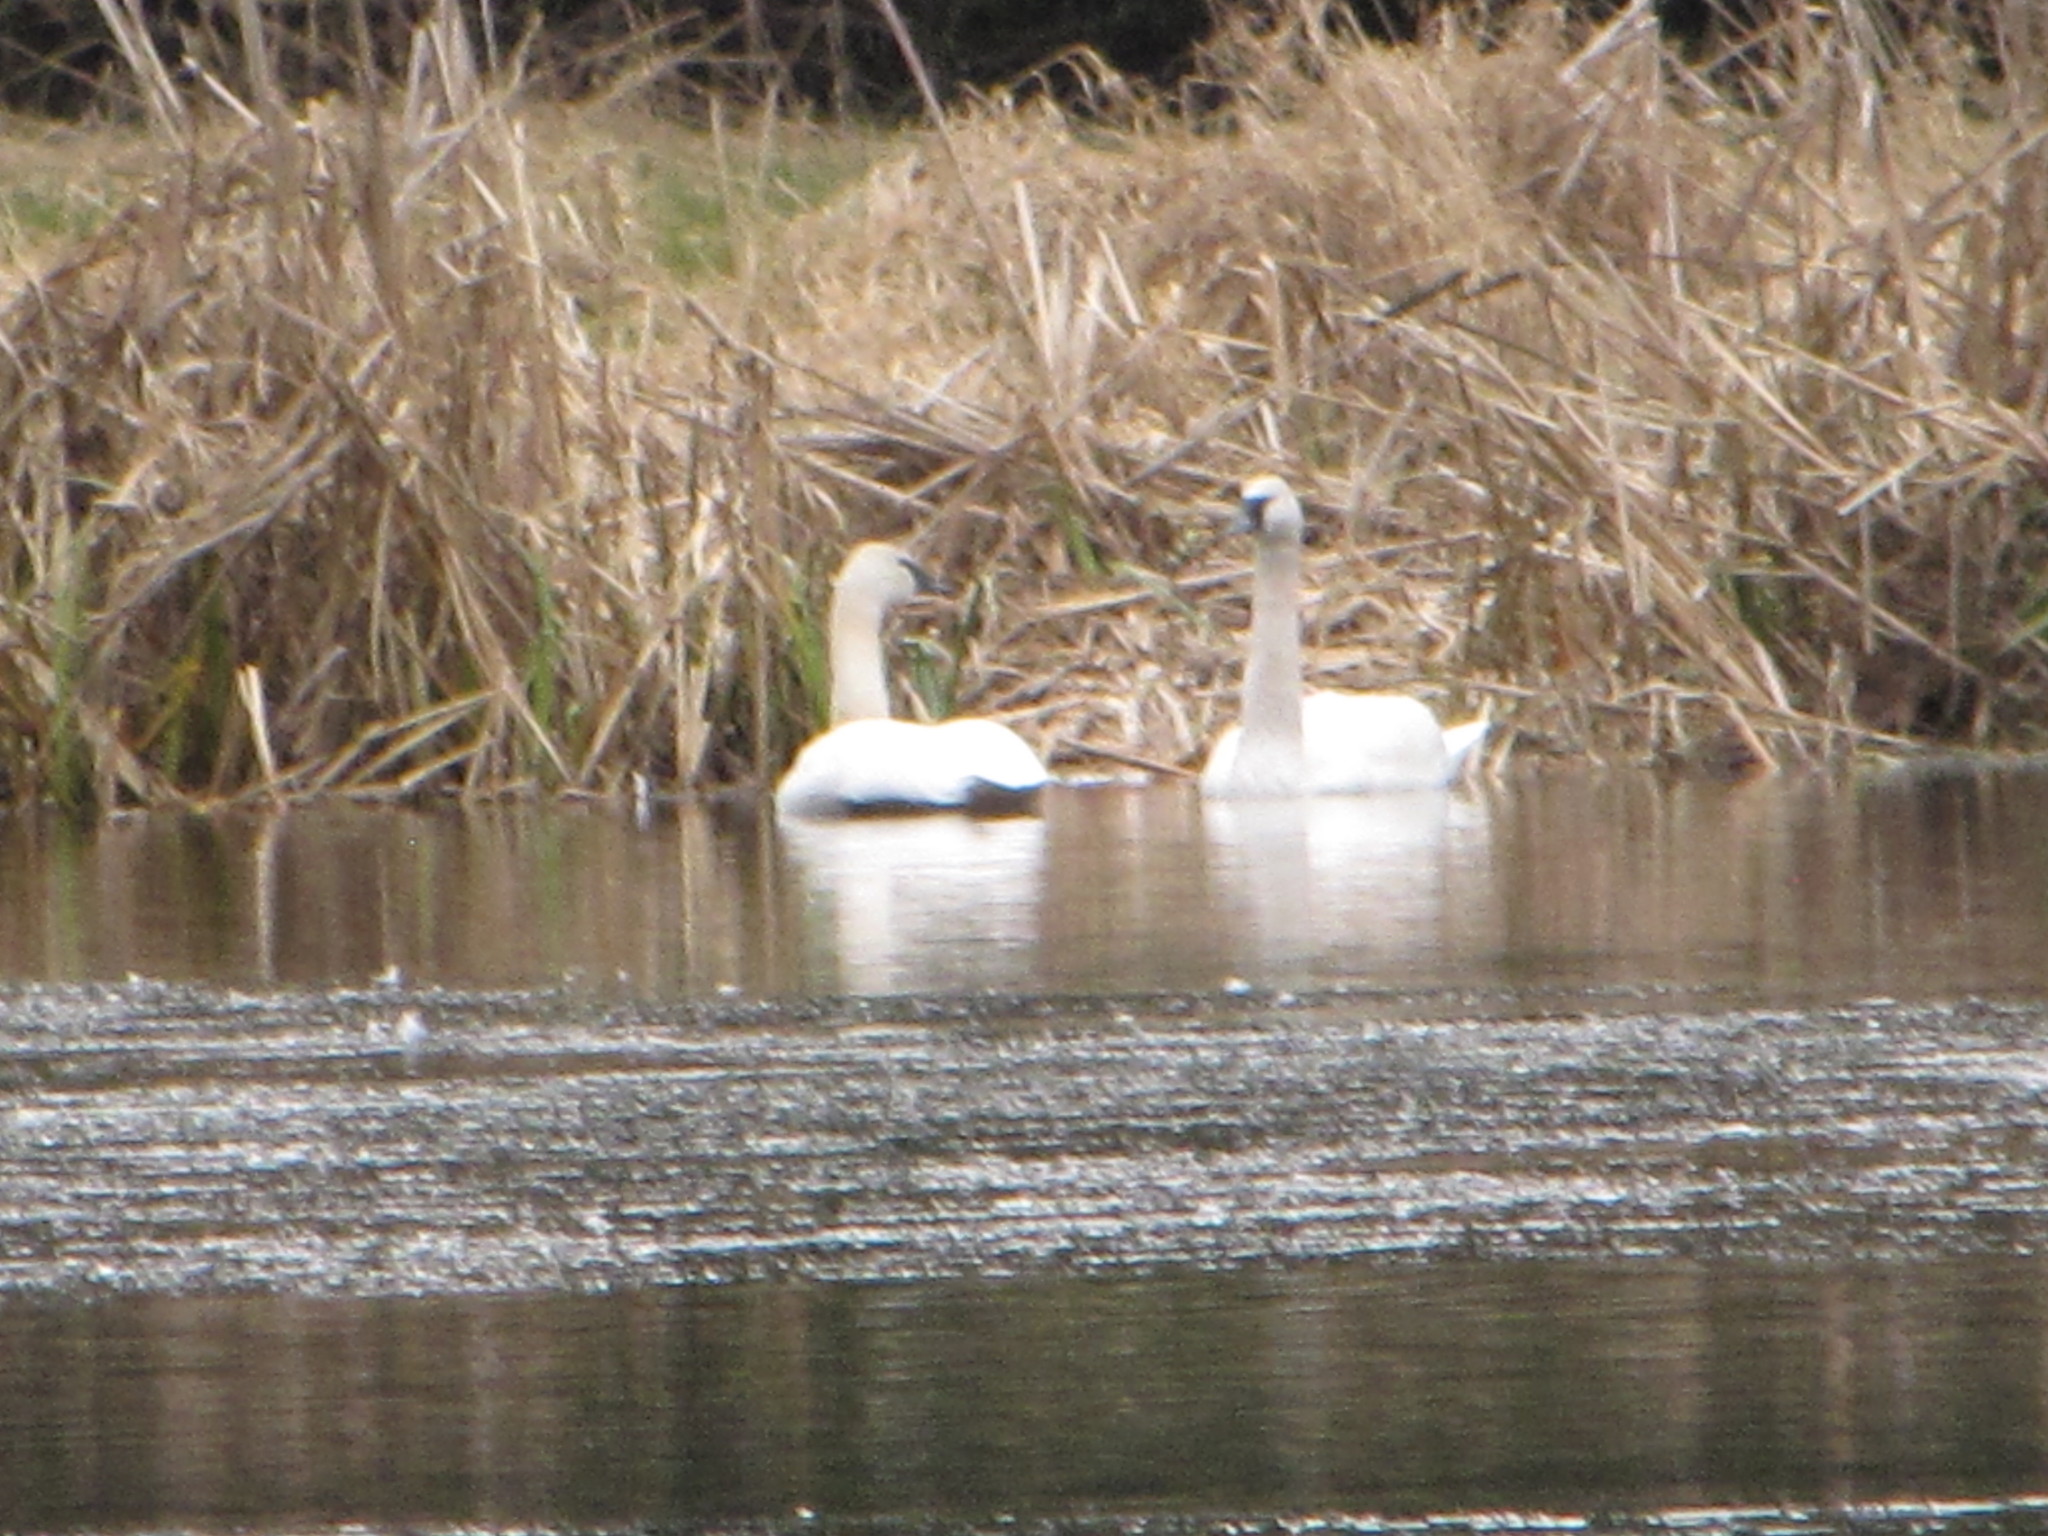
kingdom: Animalia
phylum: Chordata
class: Aves
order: Anseriformes
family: Anatidae
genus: Cygnus
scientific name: Cygnus buccinator
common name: Trumpeter swan
